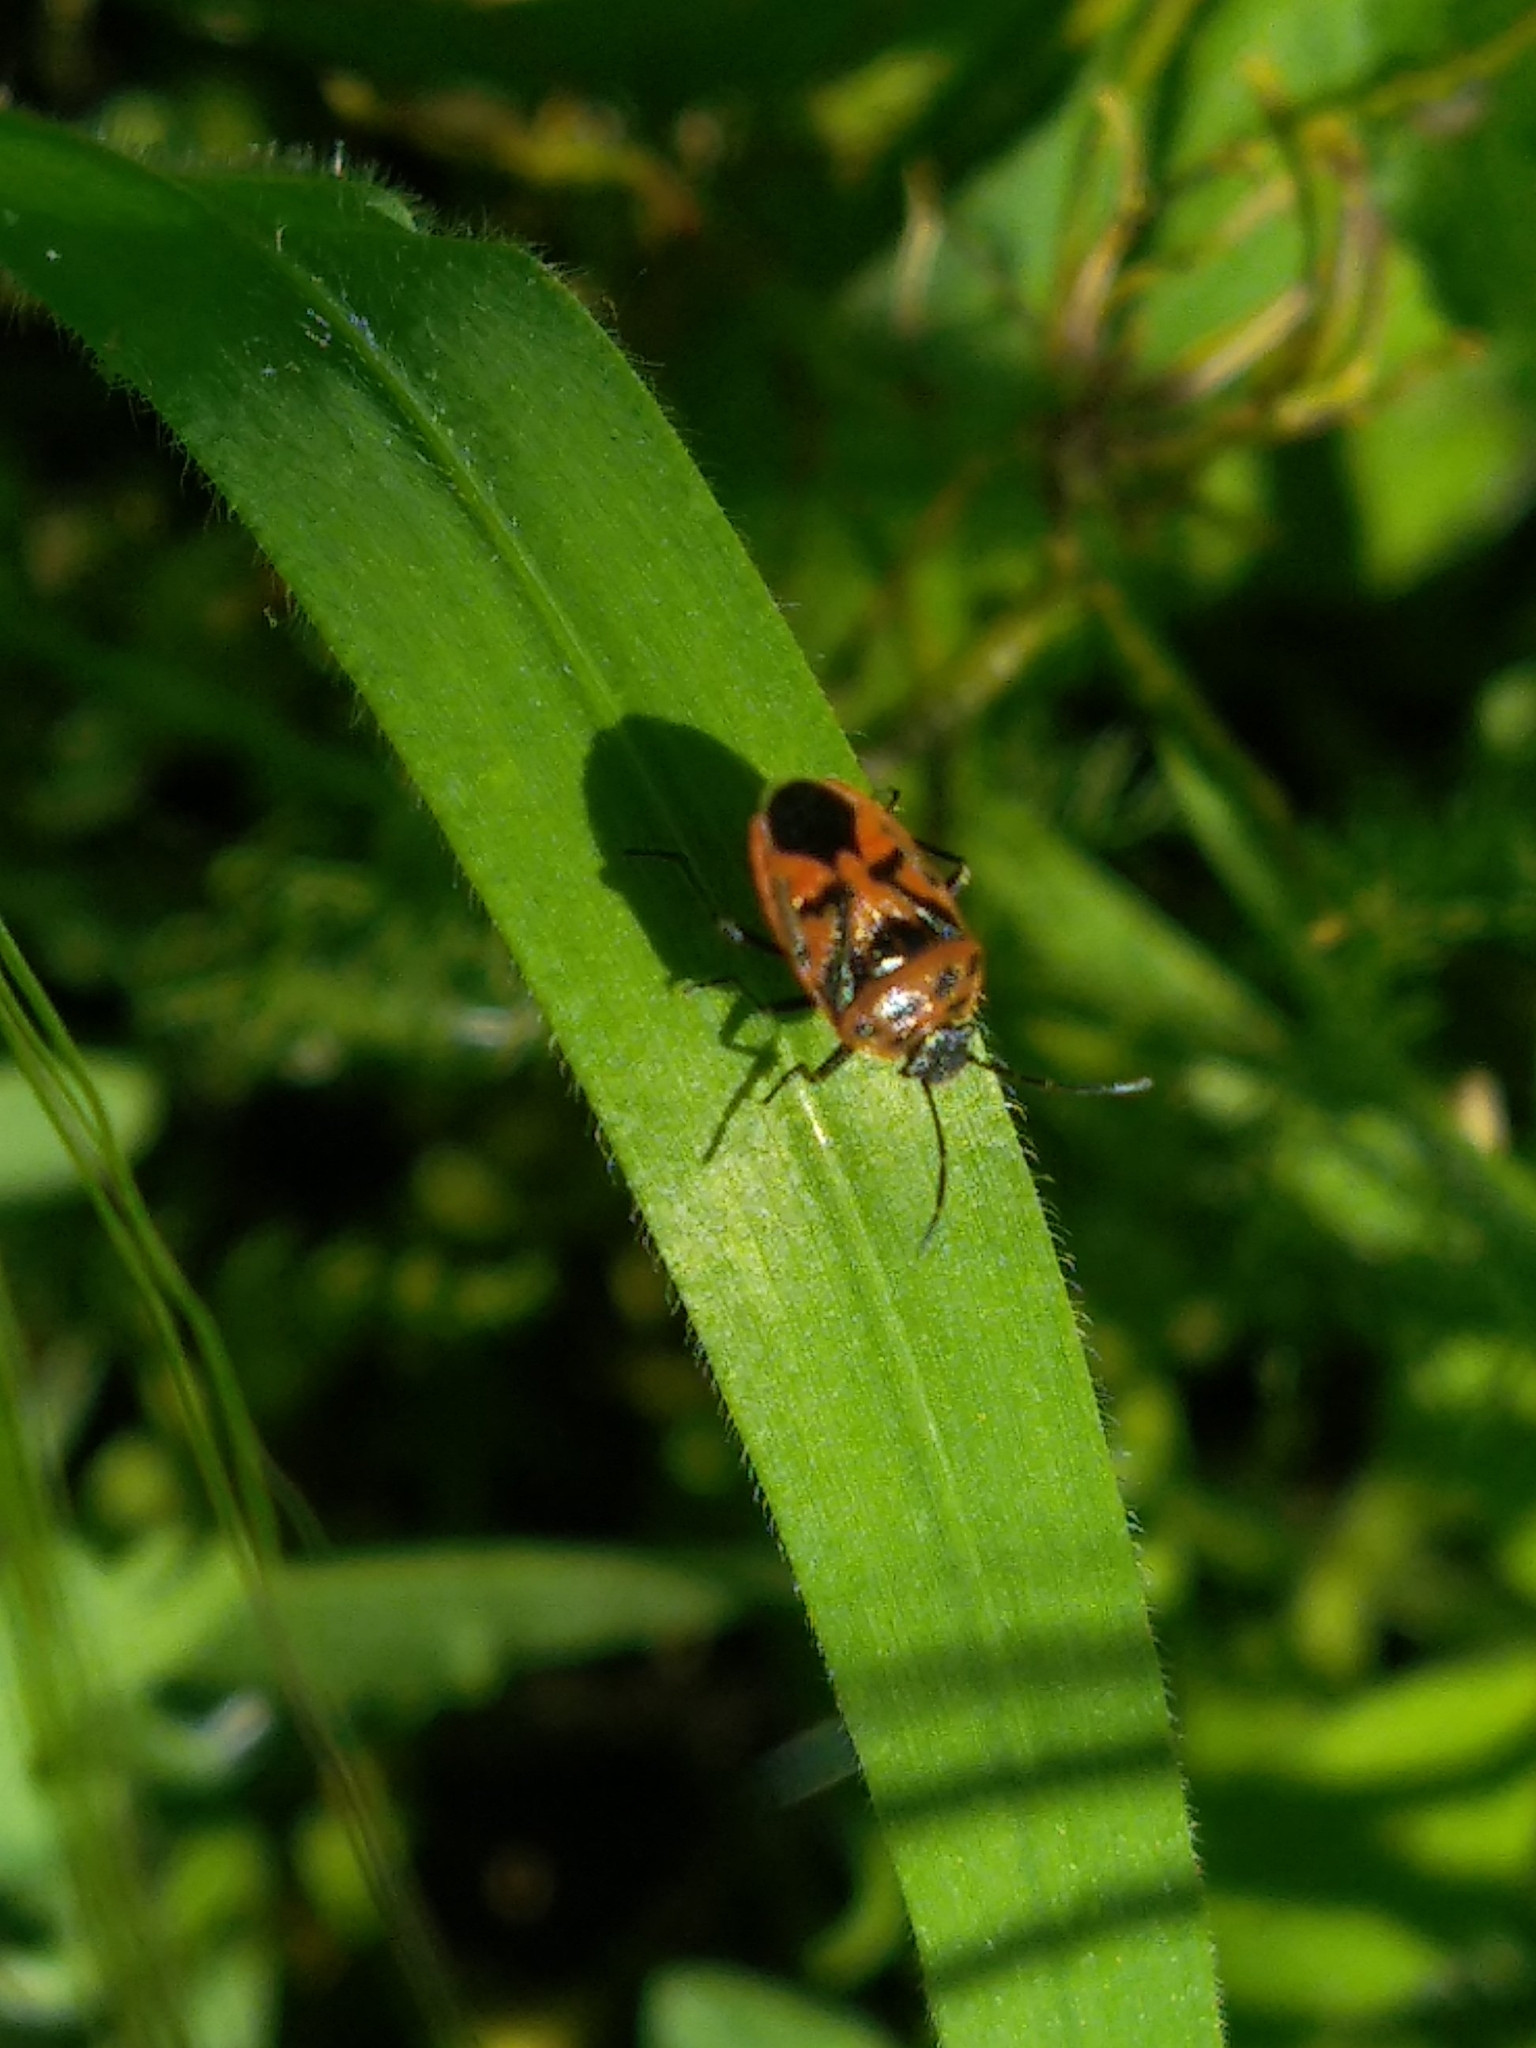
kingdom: Animalia
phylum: Arthropoda
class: Insecta
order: Hemiptera
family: Pentatomidae
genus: Eurydema
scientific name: Eurydema ornata
